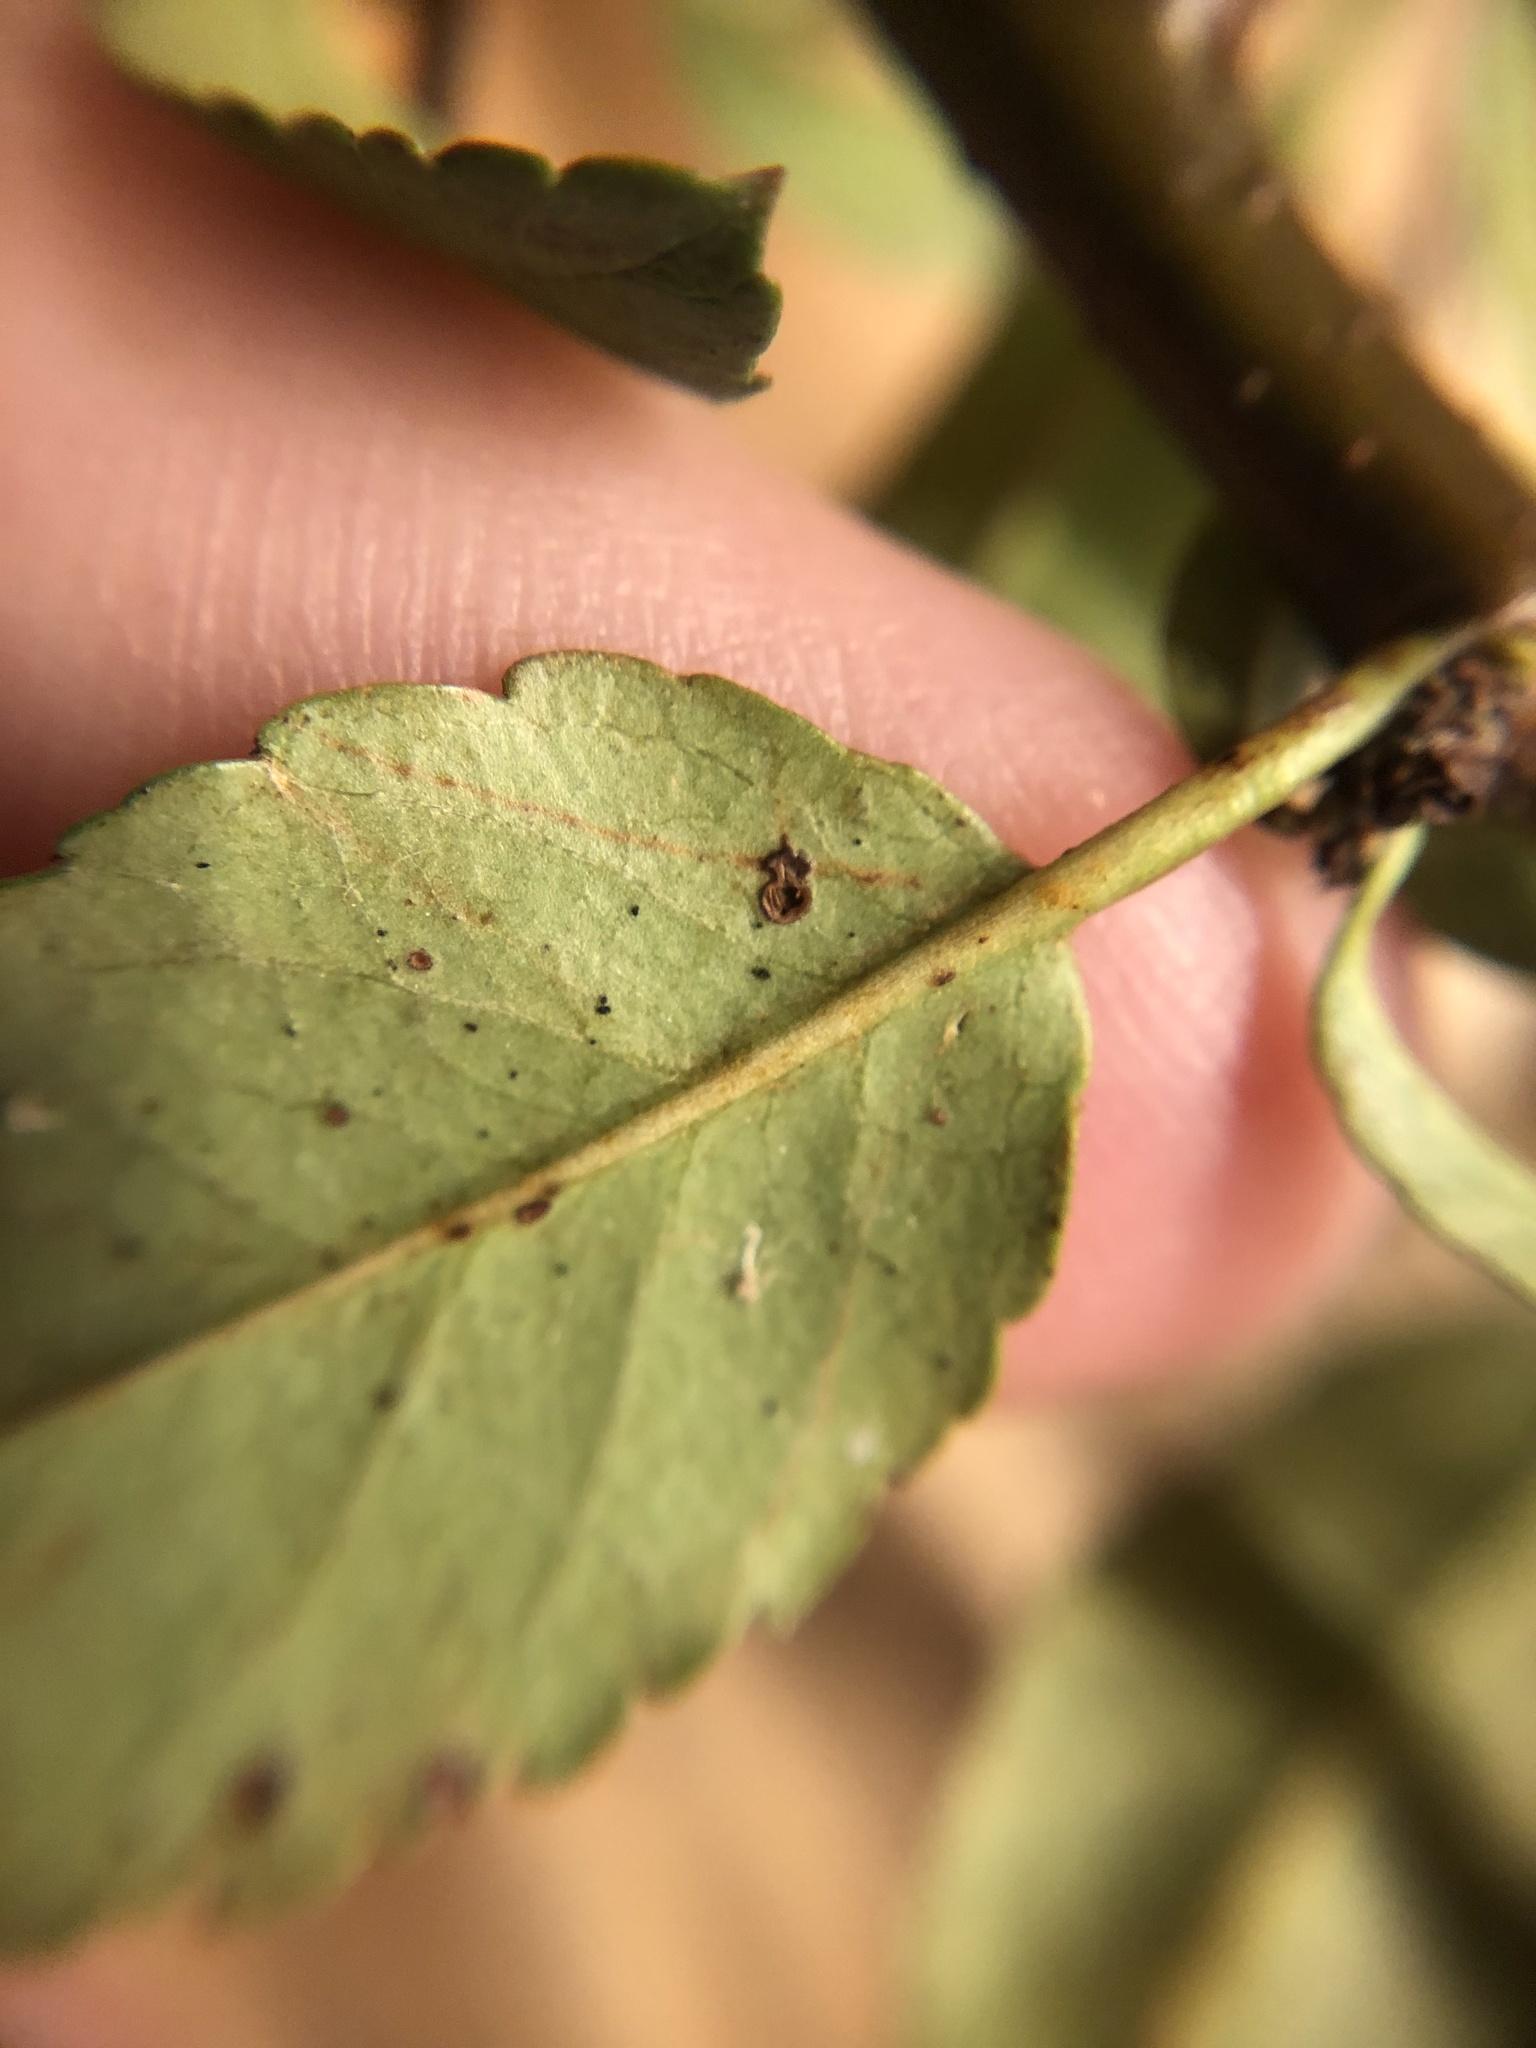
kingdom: Plantae
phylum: Tracheophyta
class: Magnoliopsida
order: Rosales
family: Rosaceae
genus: Pyracantha
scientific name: Pyracantha coccinea
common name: Firethorn
